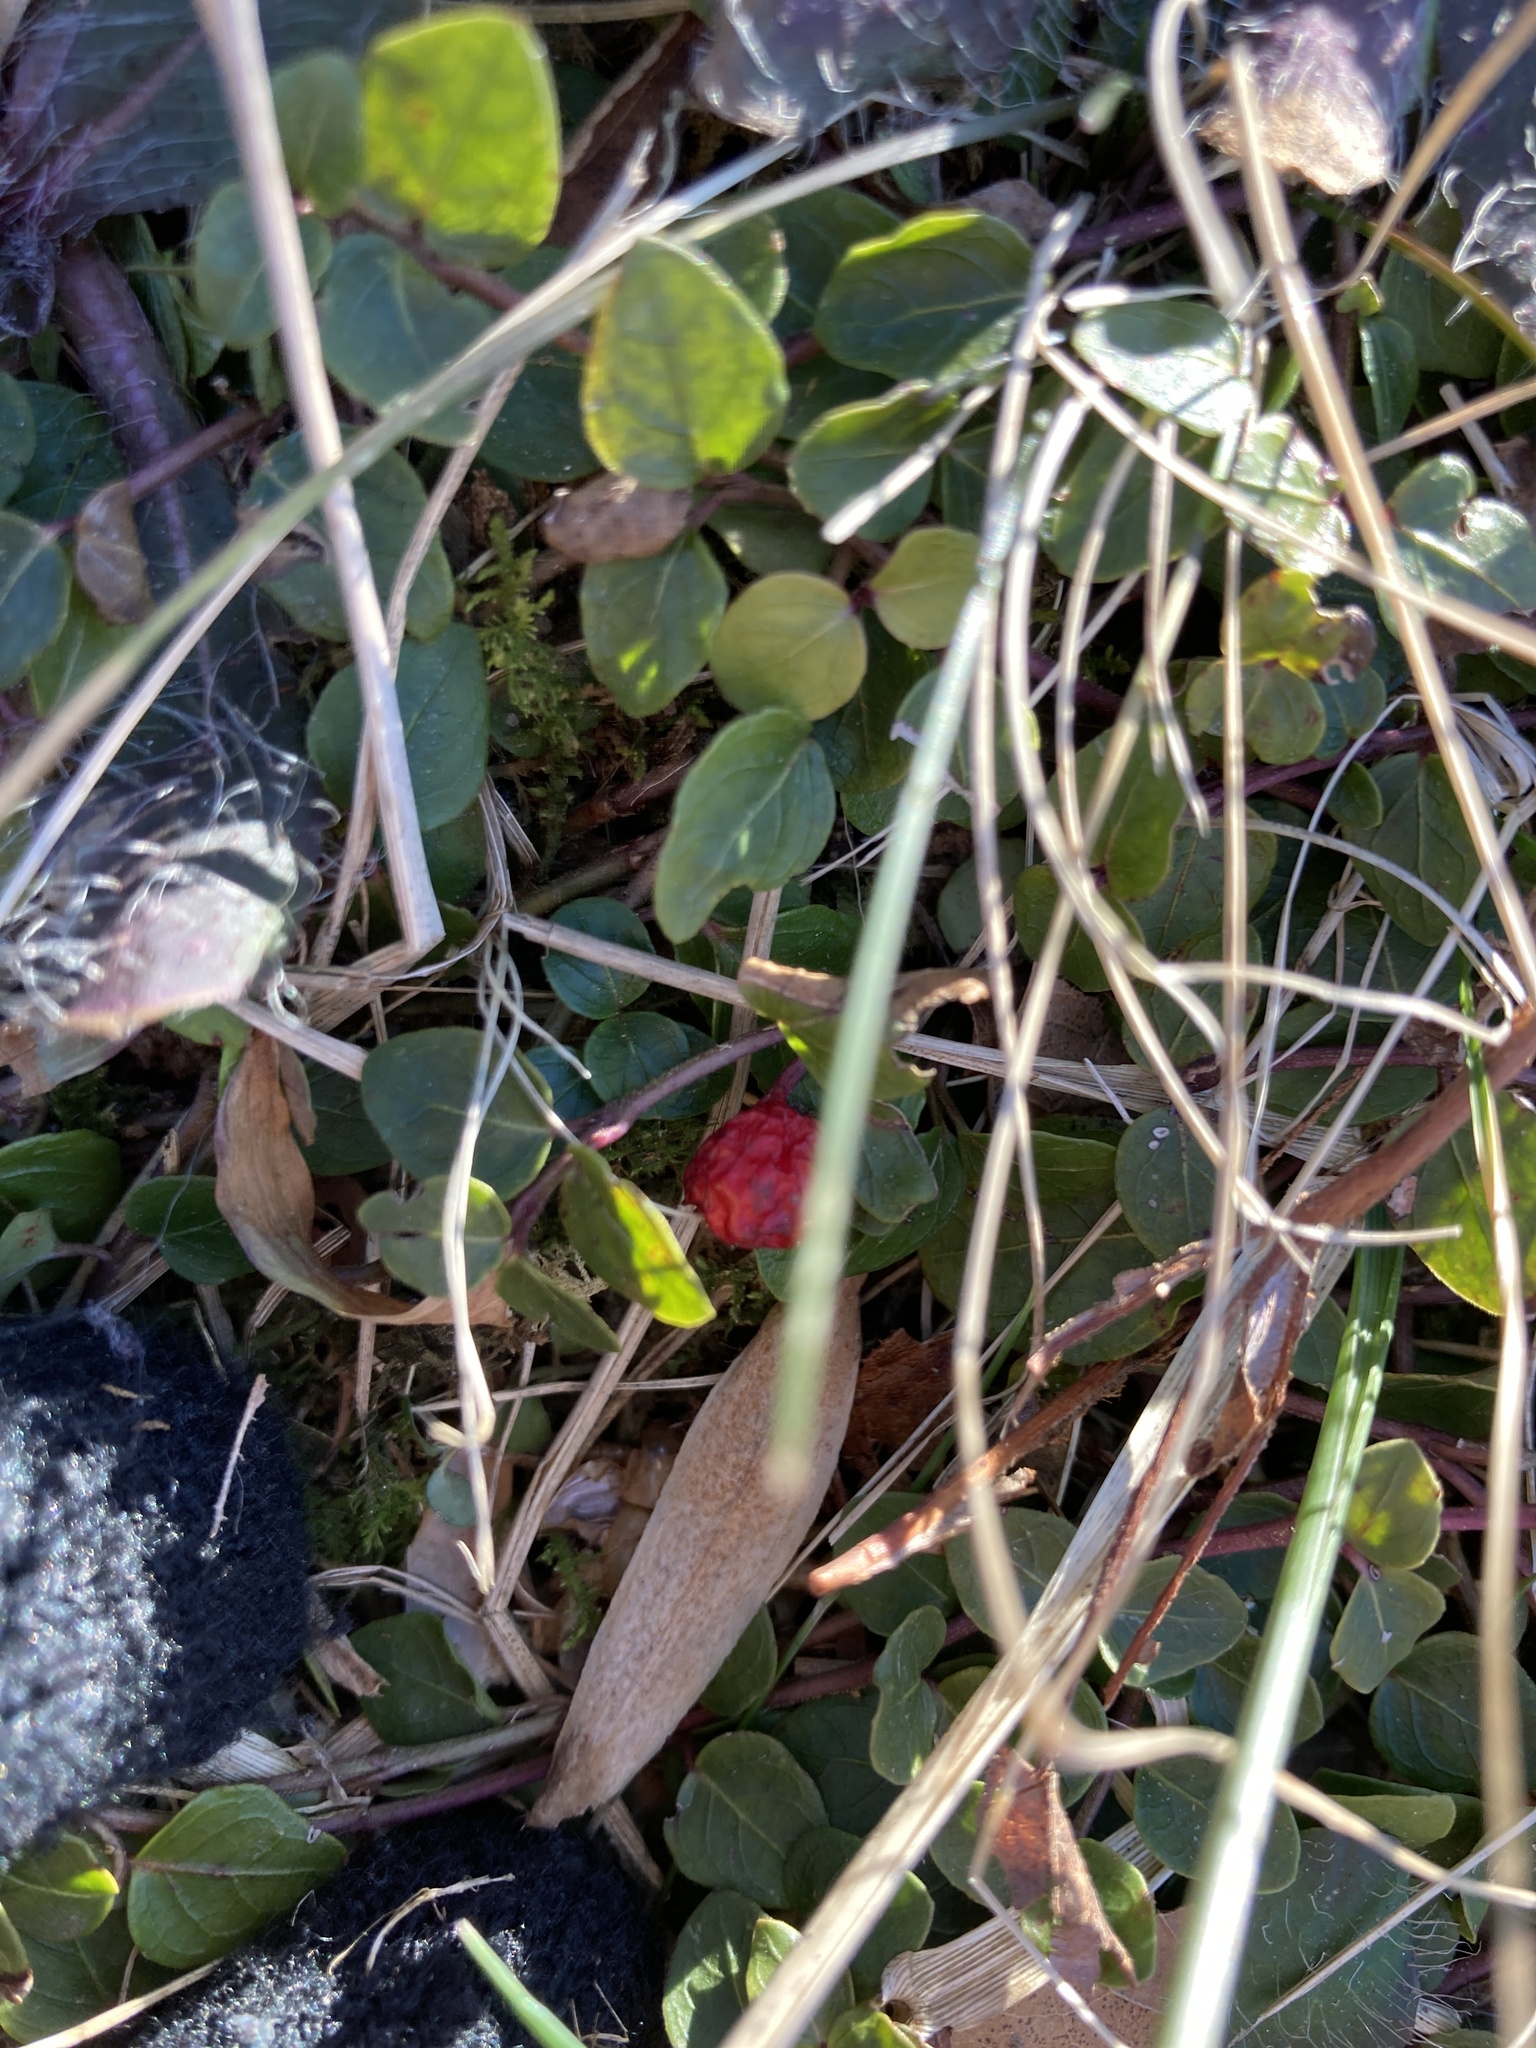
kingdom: Plantae
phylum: Tracheophyta
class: Magnoliopsida
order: Gentianales
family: Rubiaceae
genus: Mitchella
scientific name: Mitchella repens
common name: Partridge-berry
